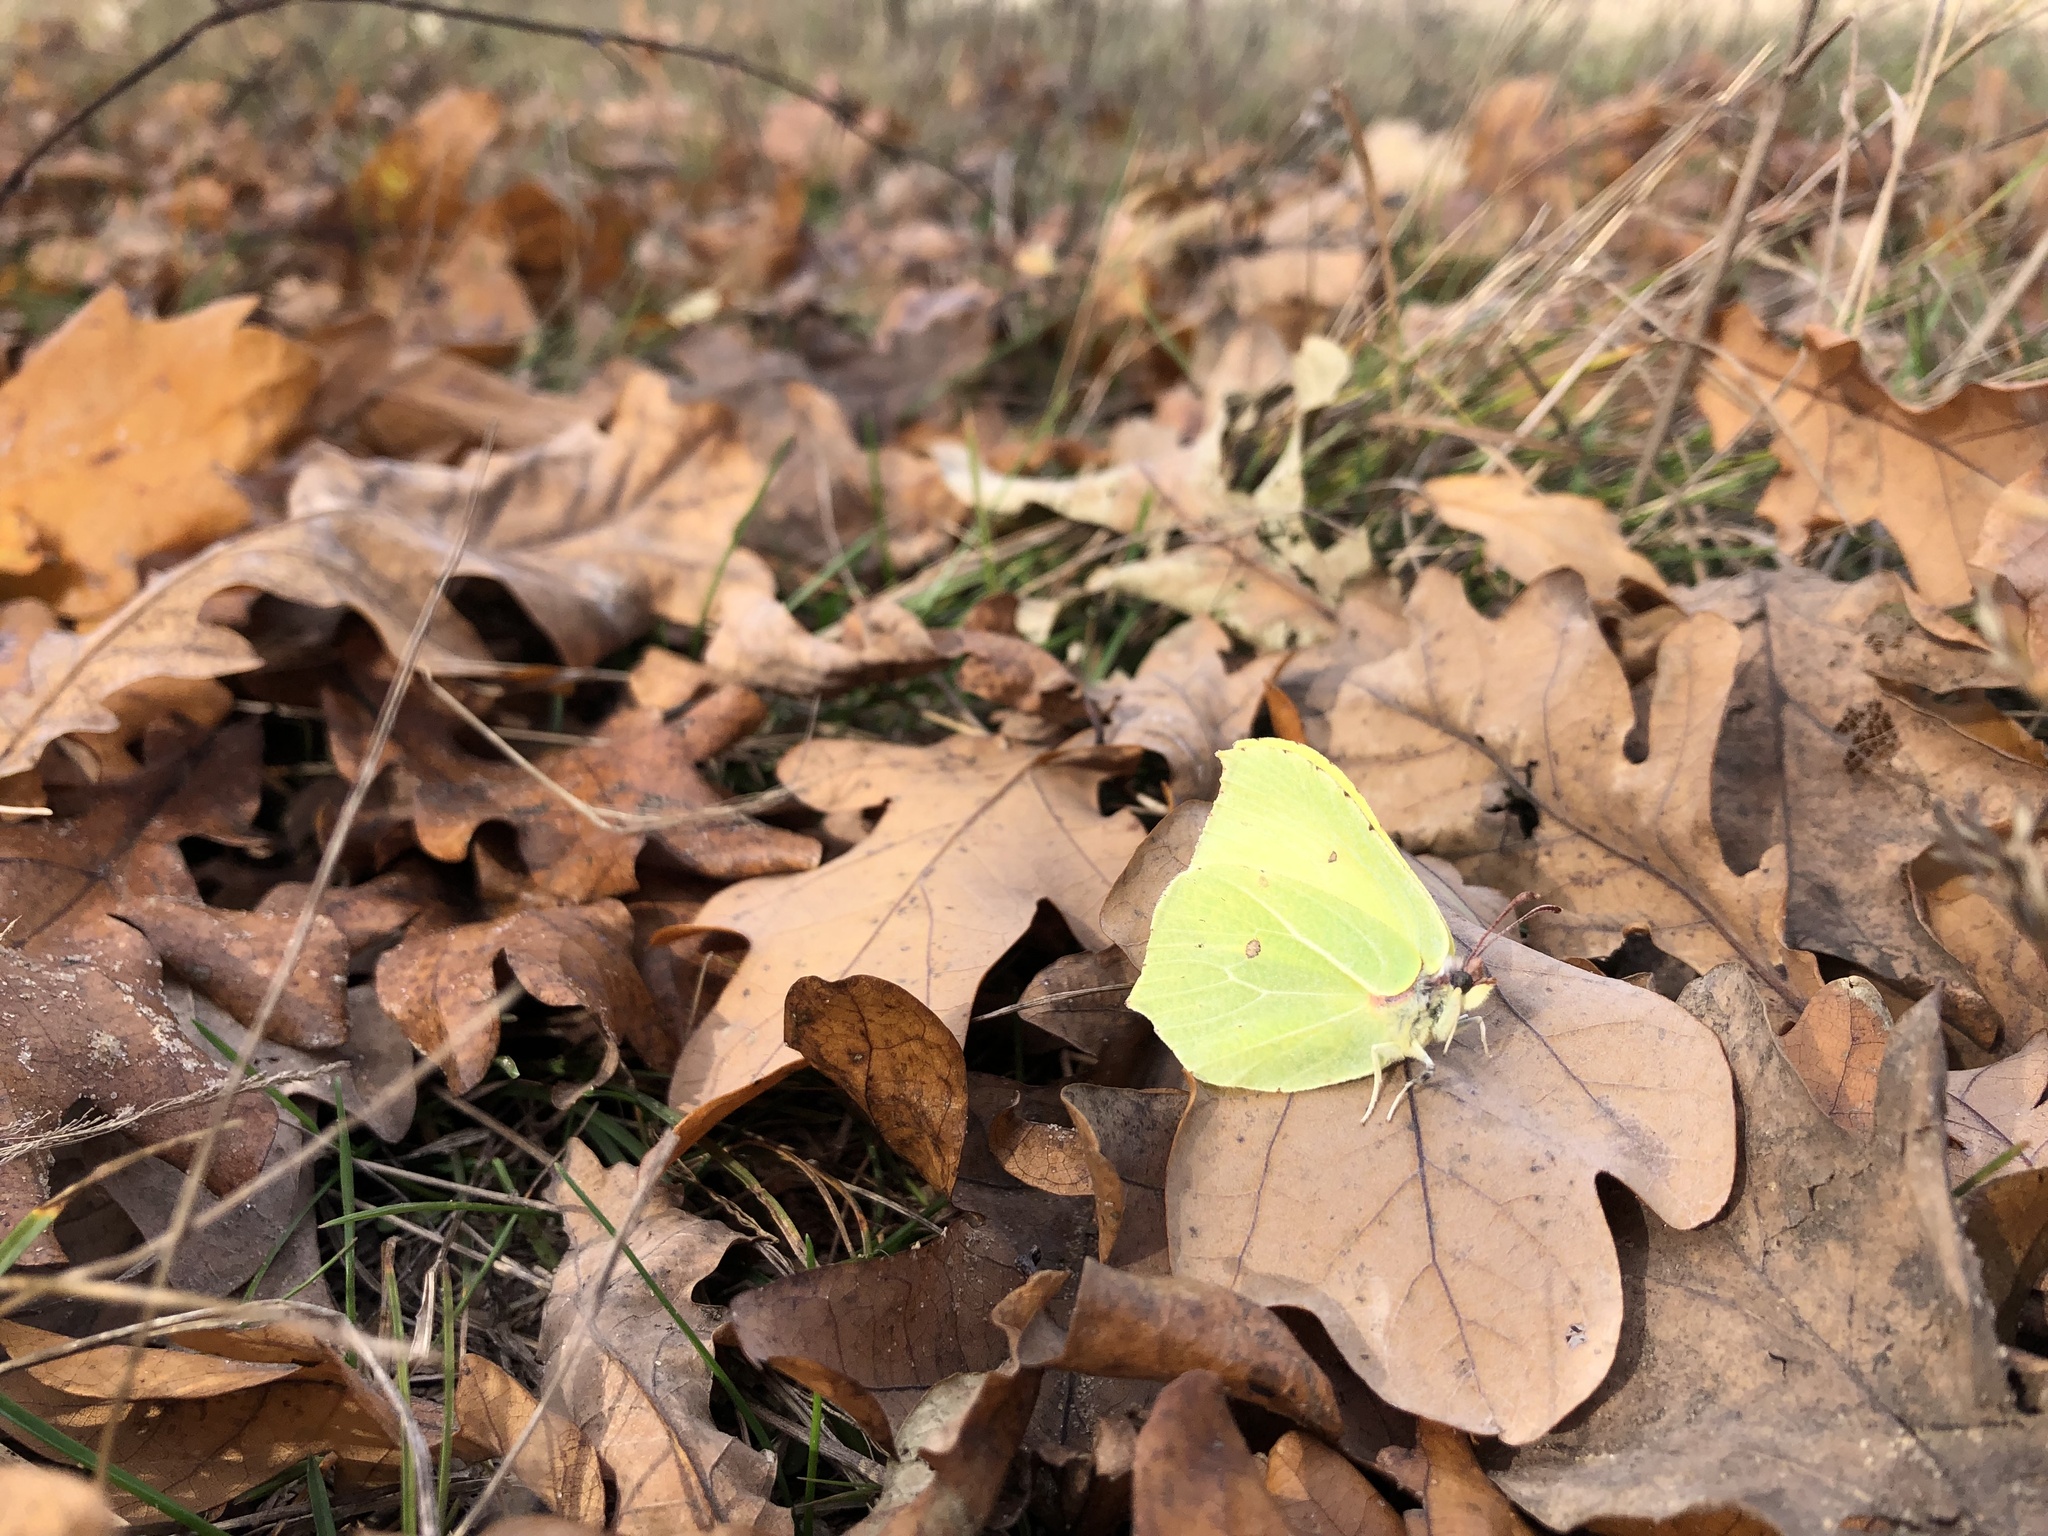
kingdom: Animalia
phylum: Arthropoda
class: Insecta
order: Lepidoptera
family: Pieridae
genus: Gonepteryx
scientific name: Gonepteryx rhamni
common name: Brimstone
